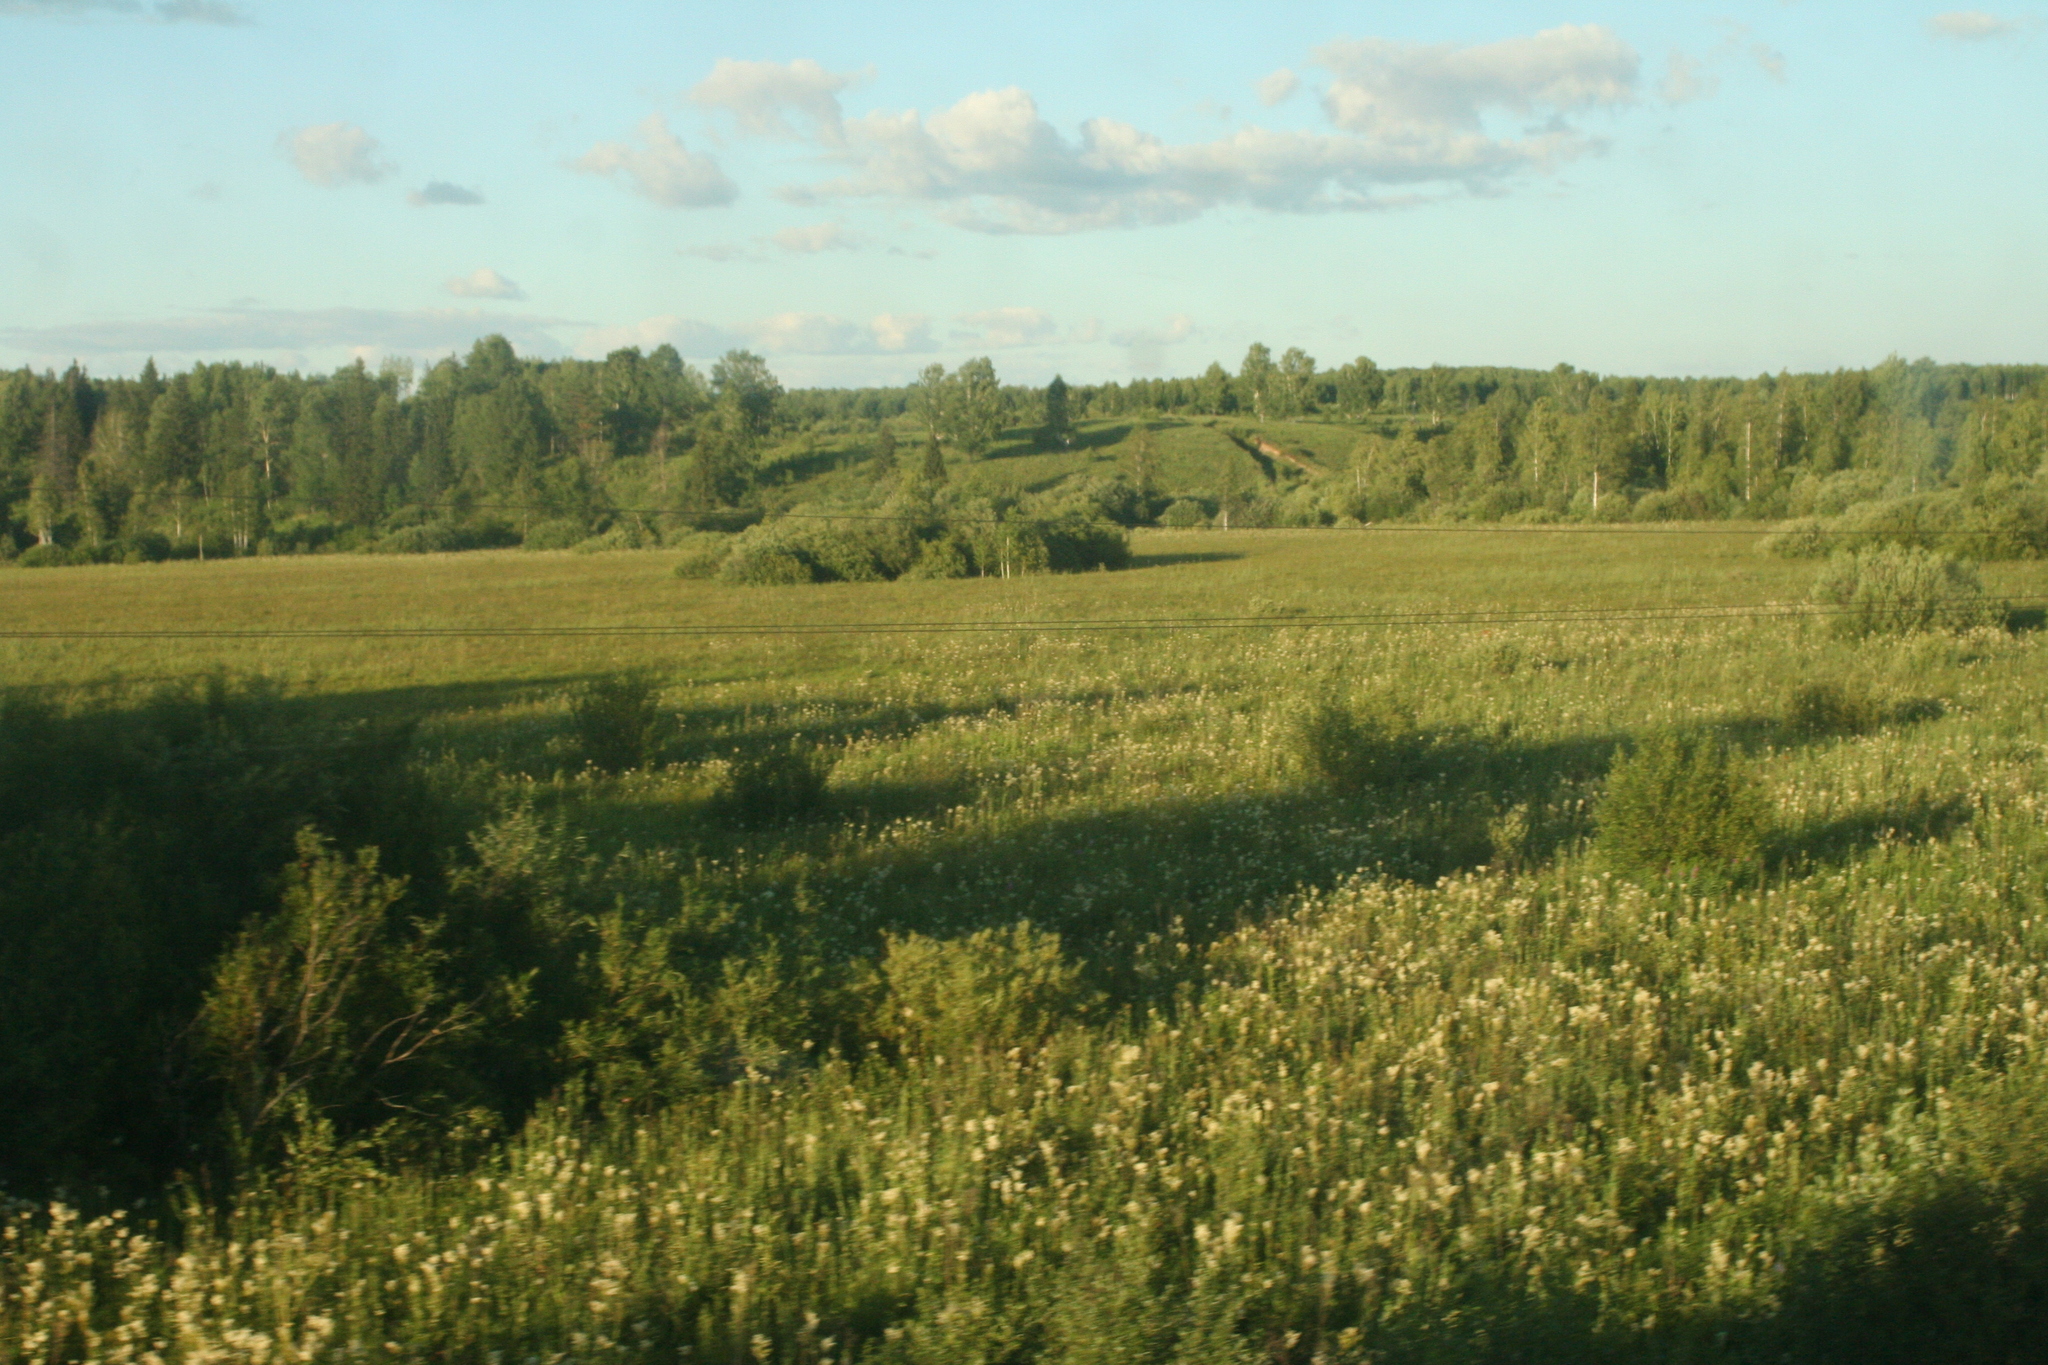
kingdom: Plantae
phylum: Tracheophyta
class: Magnoliopsida
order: Rosales
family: Rosaceae
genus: Filipendula
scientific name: Filipendula ulmaria
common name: Meadowsweet
